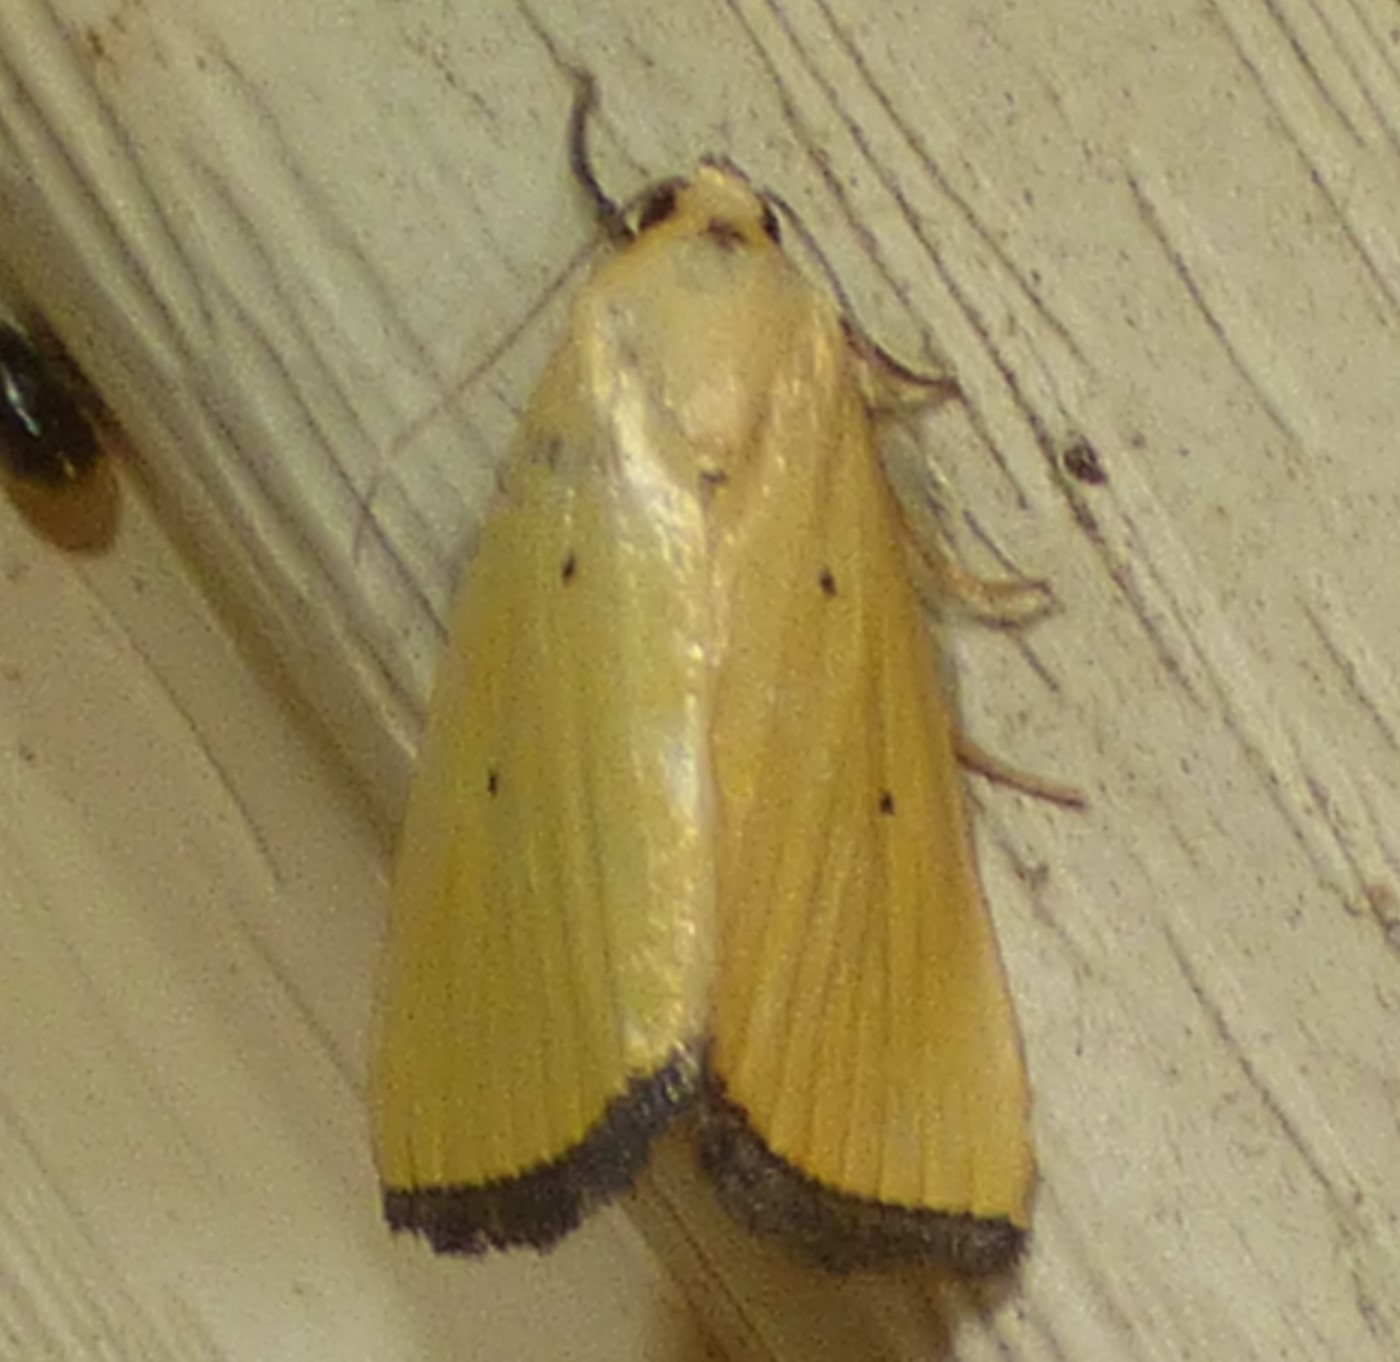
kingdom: Animalia
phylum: Arthropoda
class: Insecta
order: Lepidoptera
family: Noctuidae
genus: Marimatha
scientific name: Marimatha nigrofimbria
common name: Black-bordered lemon moth
